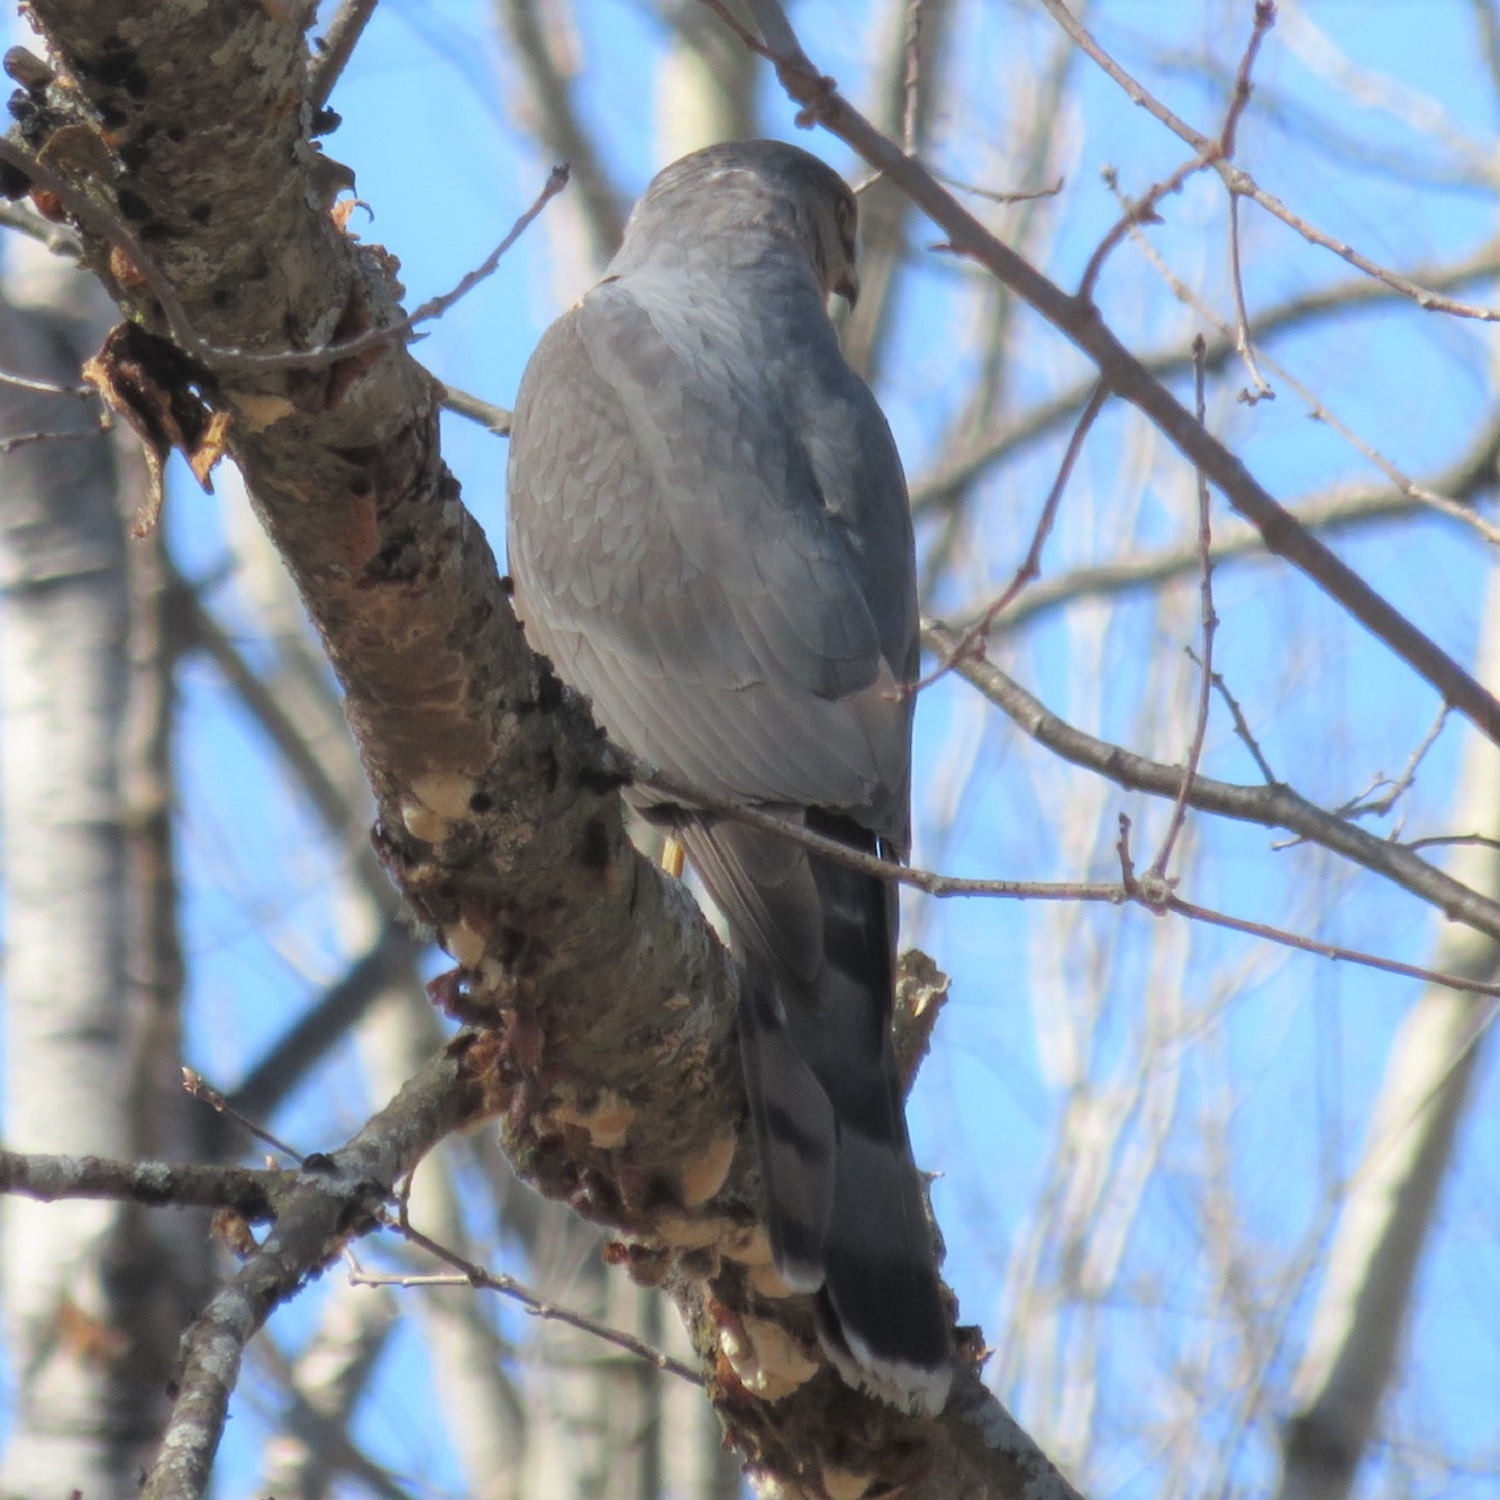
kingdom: Animalia
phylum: Chordata
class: Aves
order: Accipitriformes
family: Accipitridae
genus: Accipiter
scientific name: Accipiter cooperii
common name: Cooper's hawk
